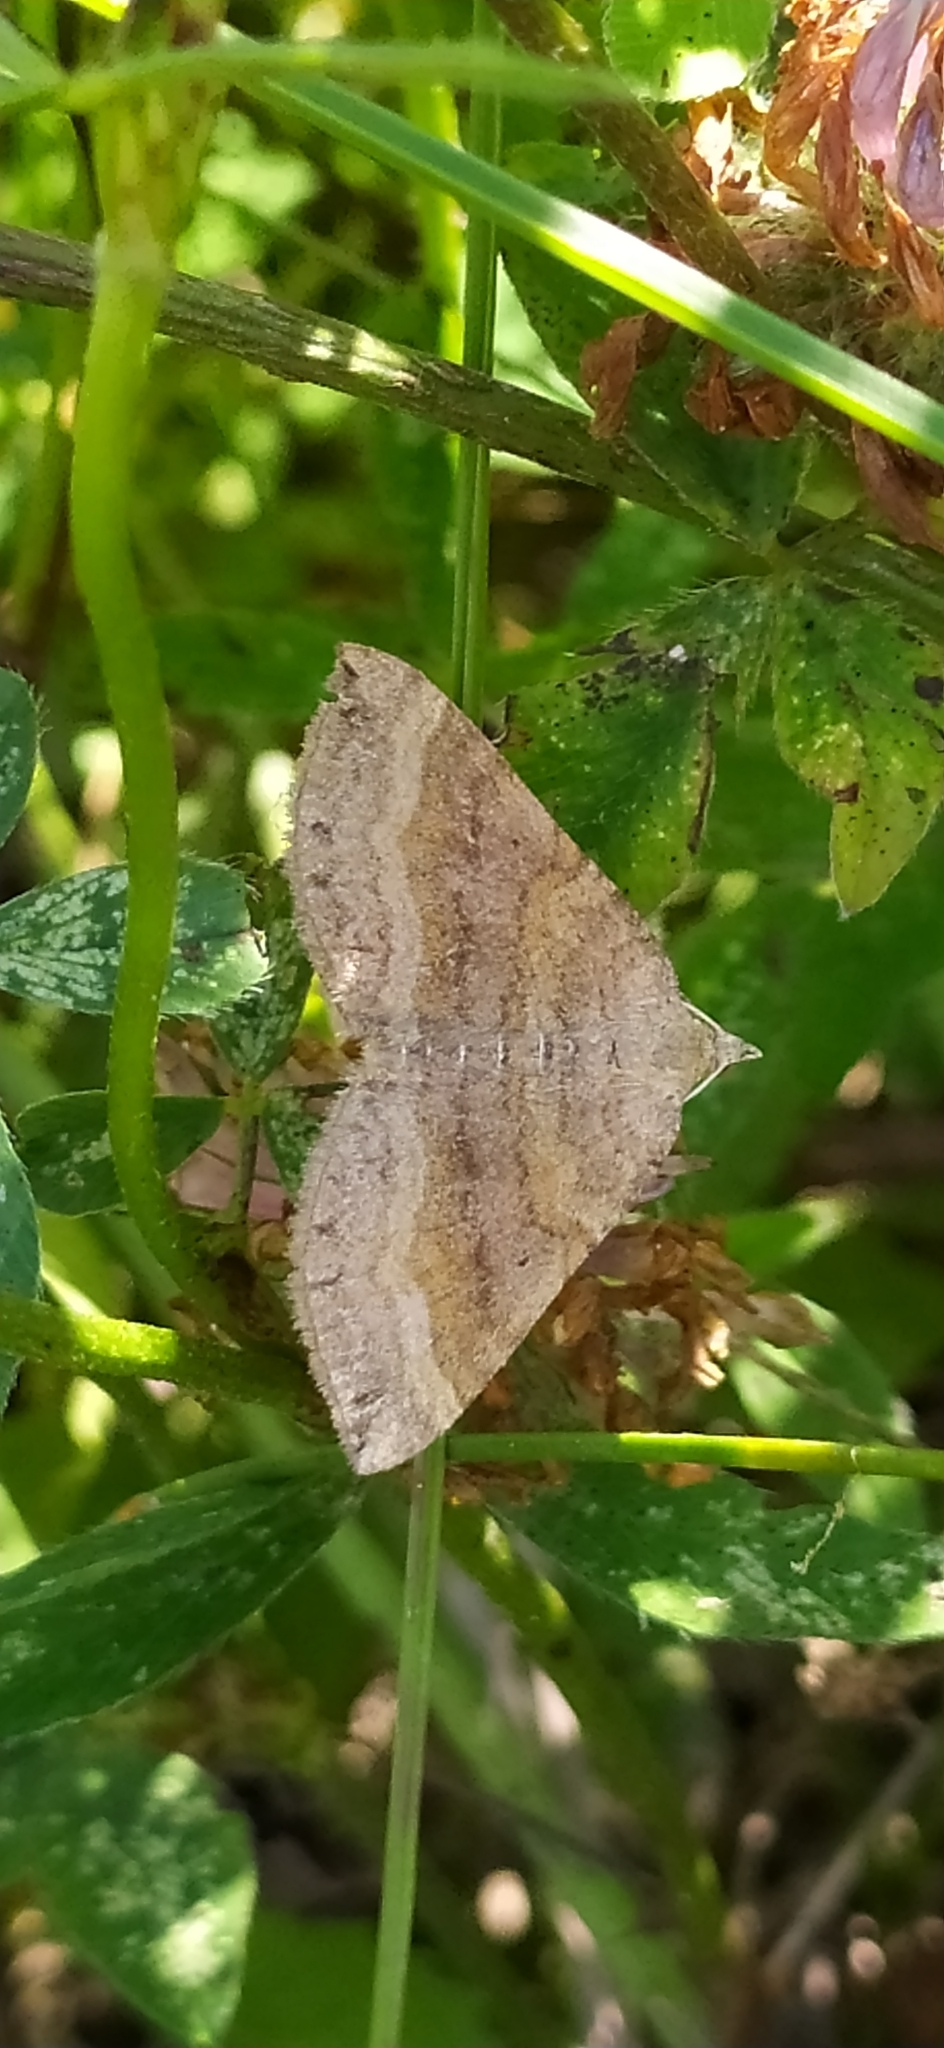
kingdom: Animalia
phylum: Arthropoda
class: Insecta
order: Lepidoptera
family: Geometridae
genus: Scotopteryx
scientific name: Scotopteryx chenopodiata
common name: Shaded broad-bar
